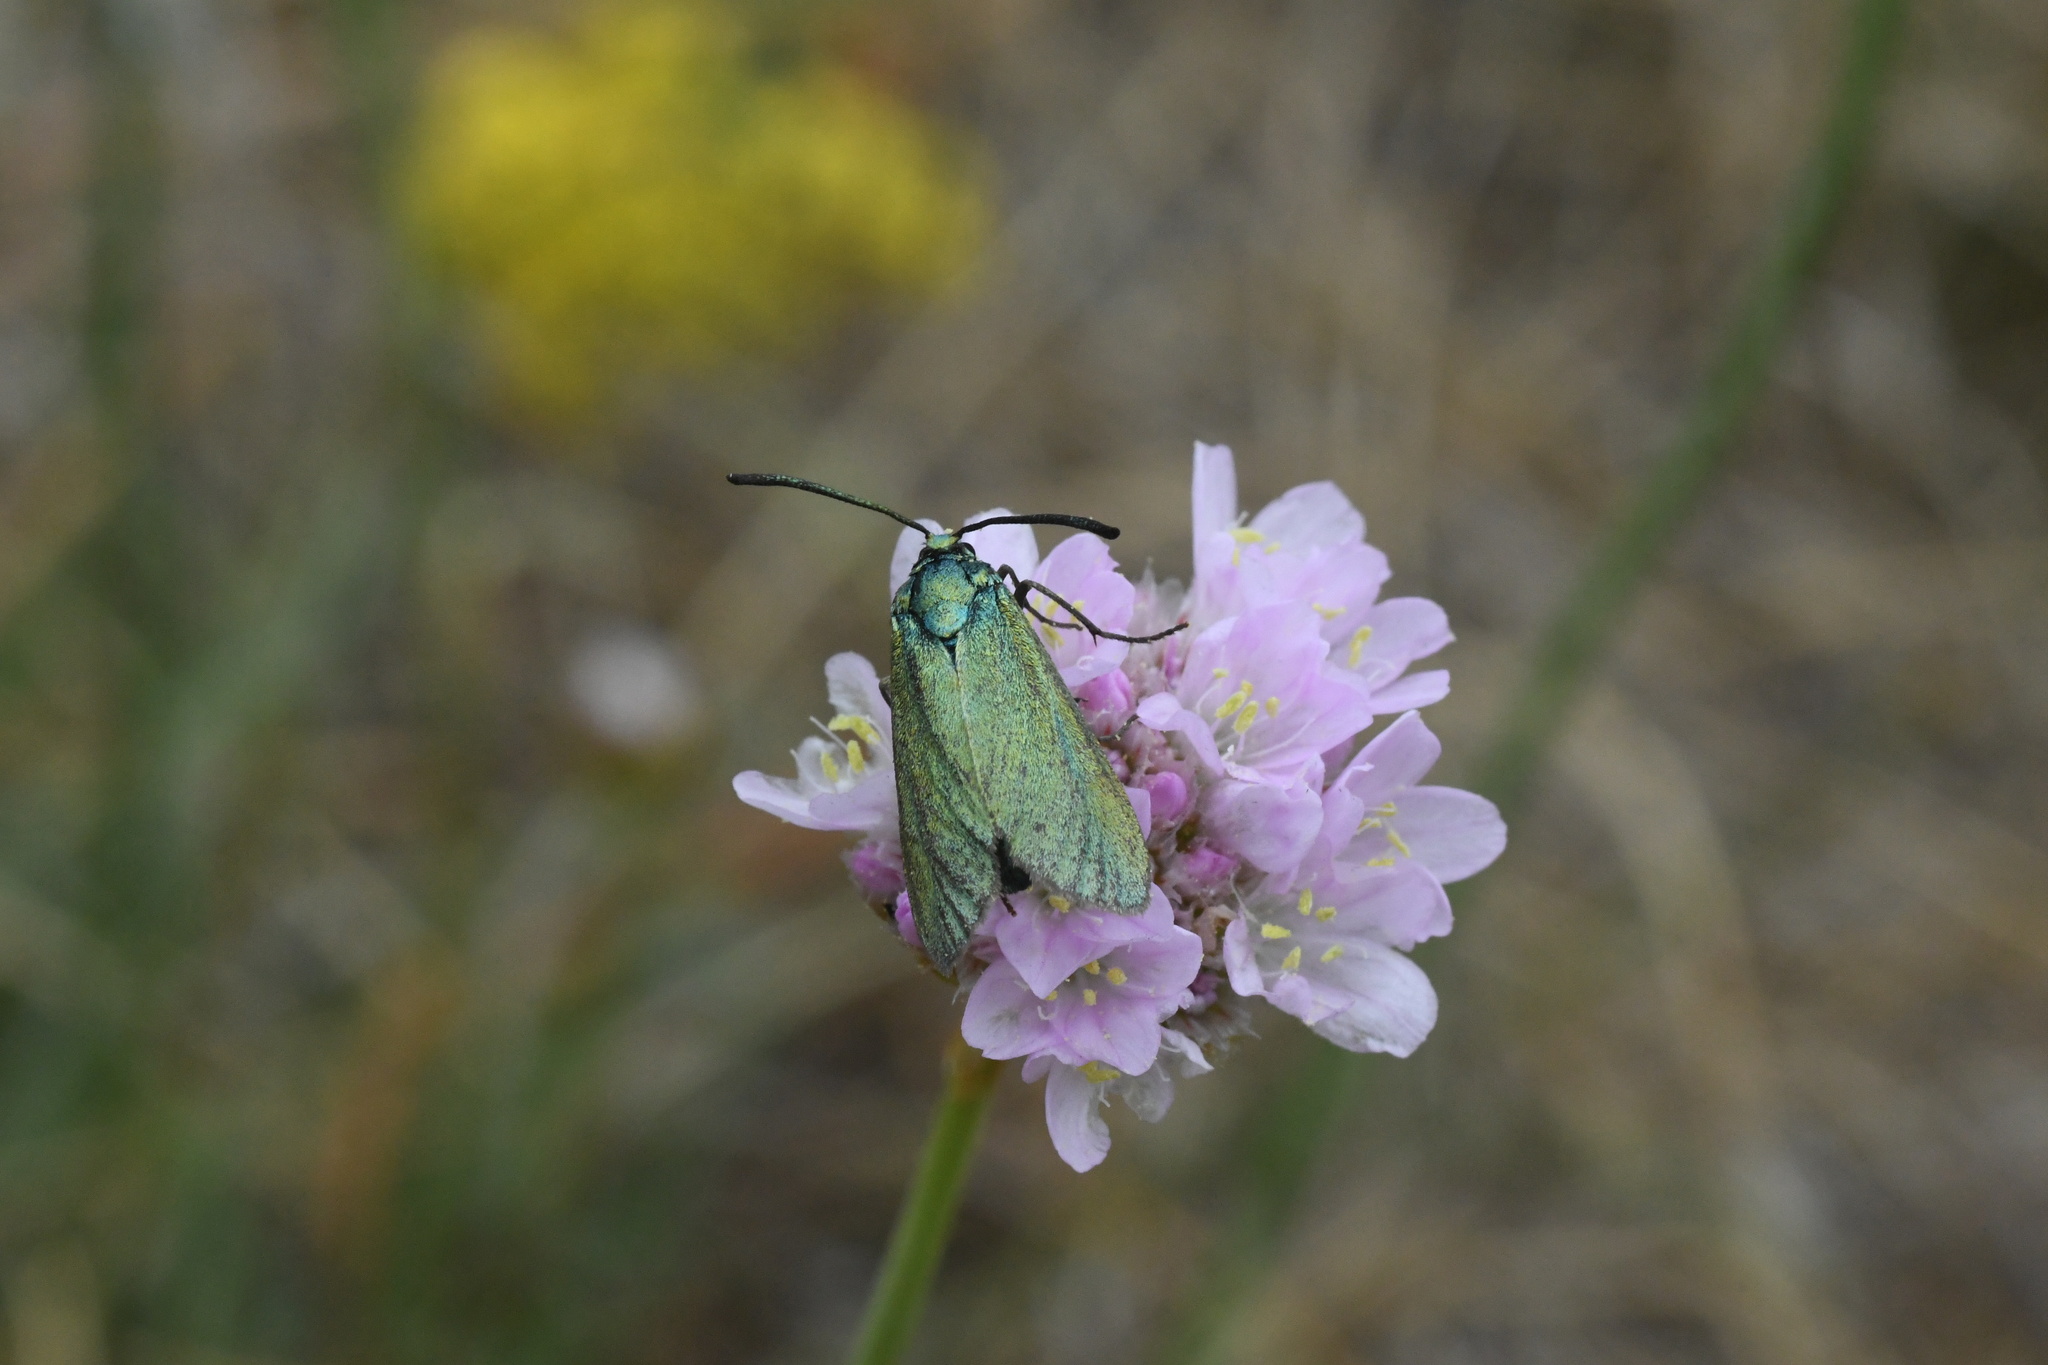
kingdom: Animalia
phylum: Arthropoda
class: Insecta
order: Lepidoptera
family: Zygaenidae
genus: Adscita
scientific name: Adscita statices
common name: Forester
